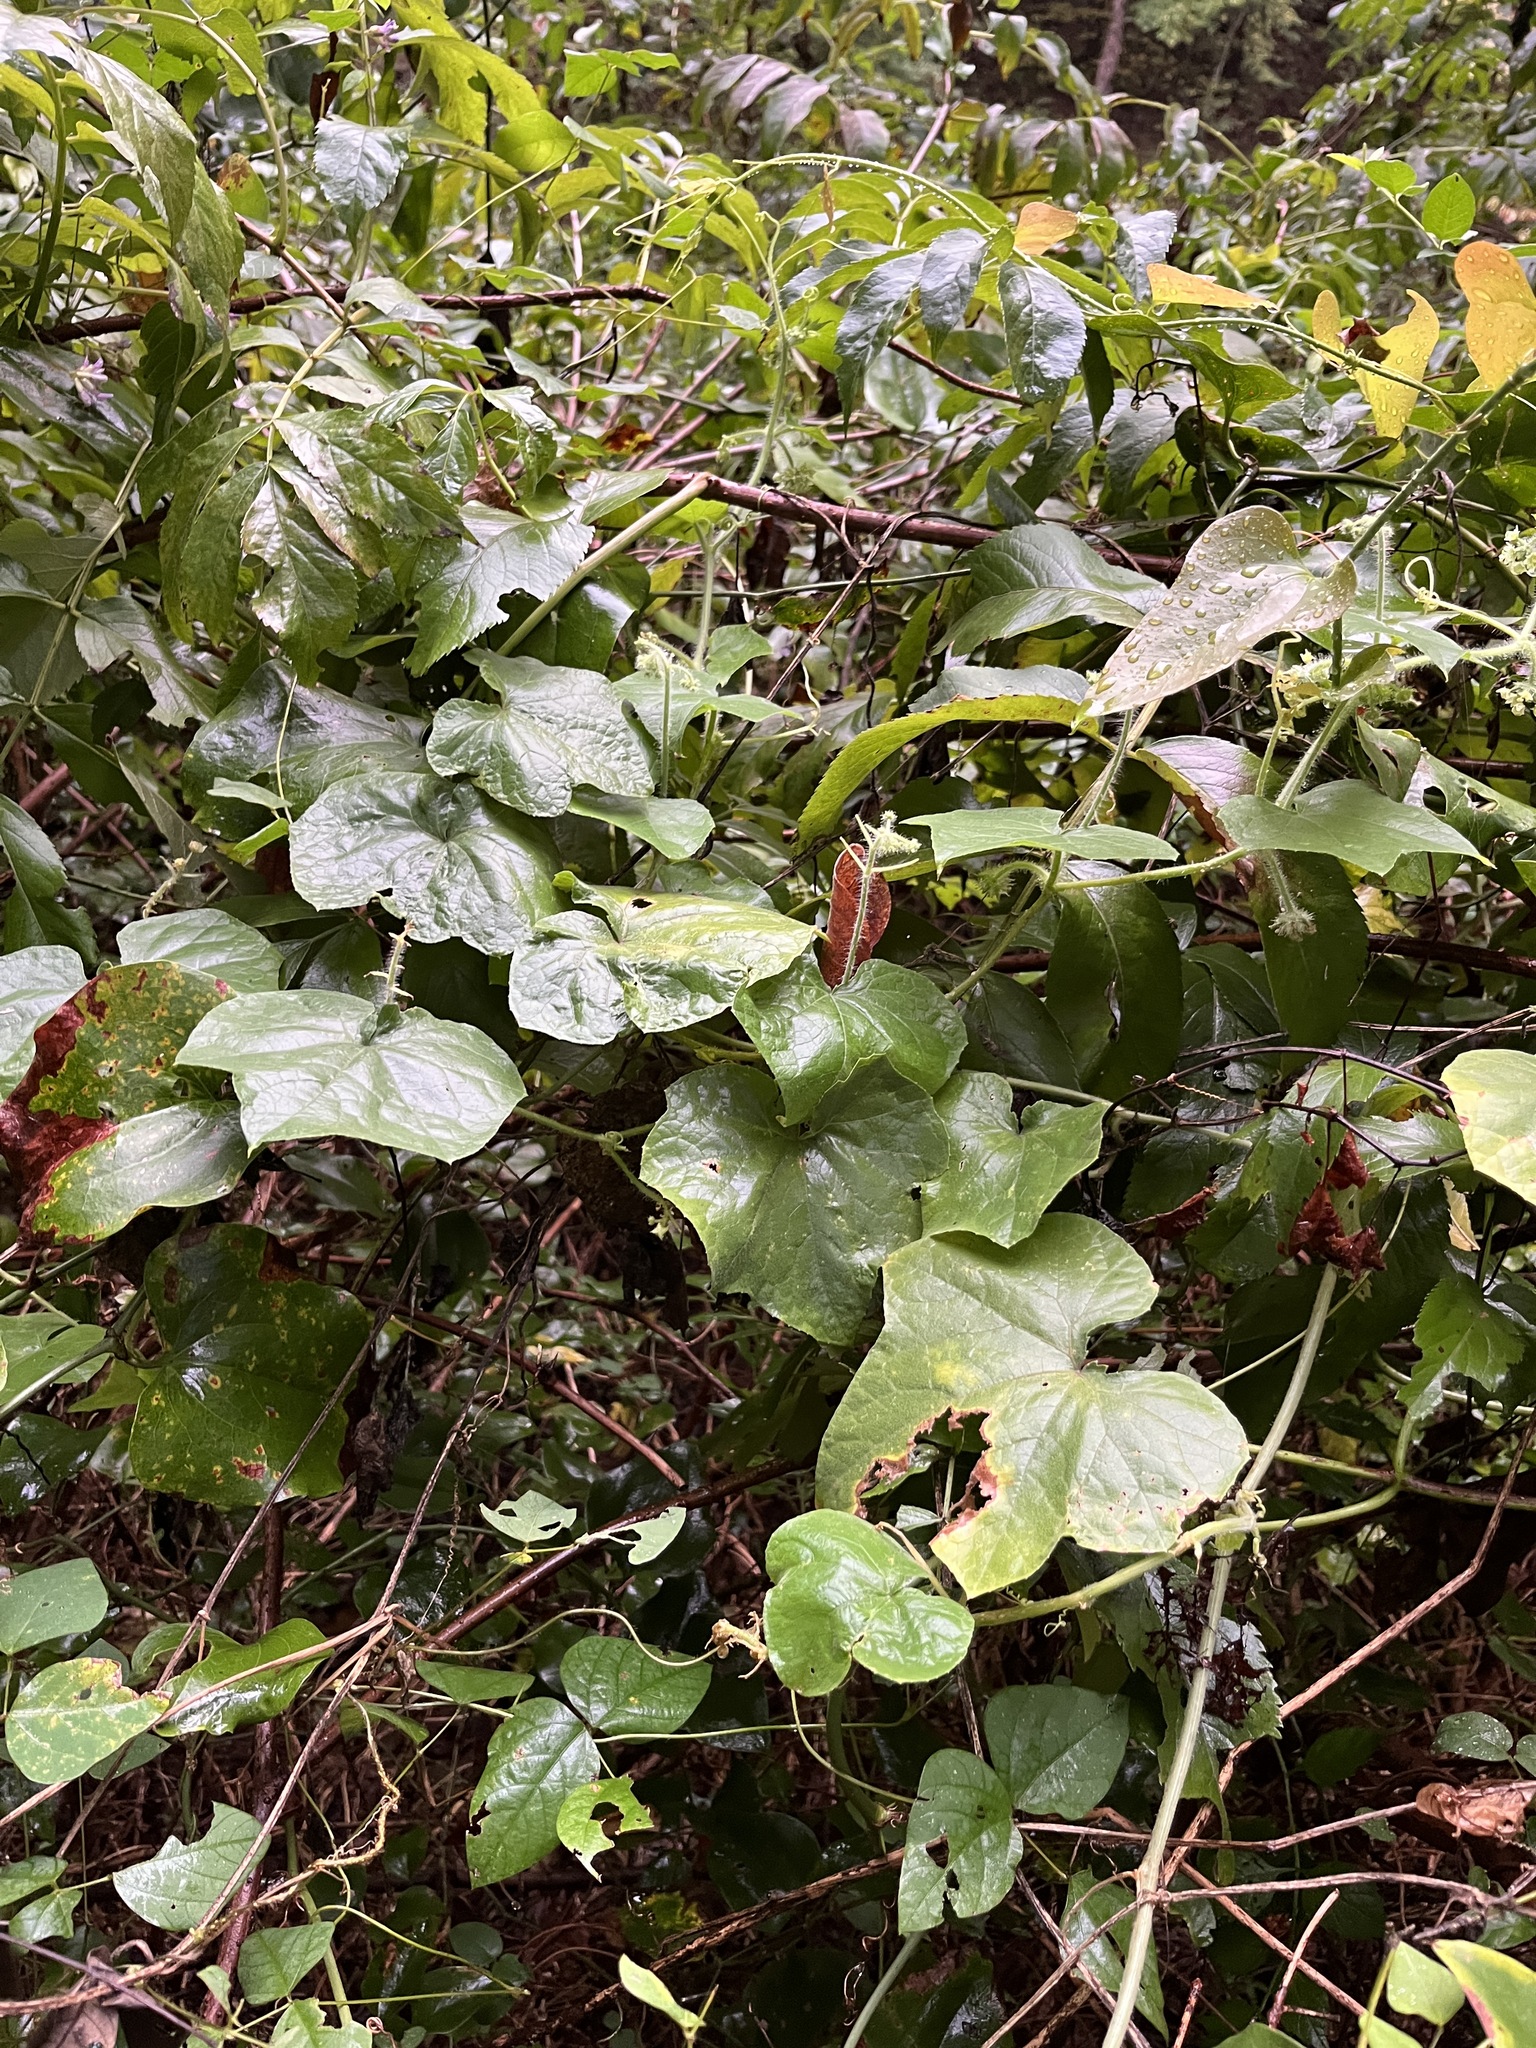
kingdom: Plantae
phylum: Tracheophyta
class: Magnoliopsida
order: Cucurbitales
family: Cucurbitaceae
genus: Sicyos
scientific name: Sicyos angulatus
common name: Angled burr cucumber
